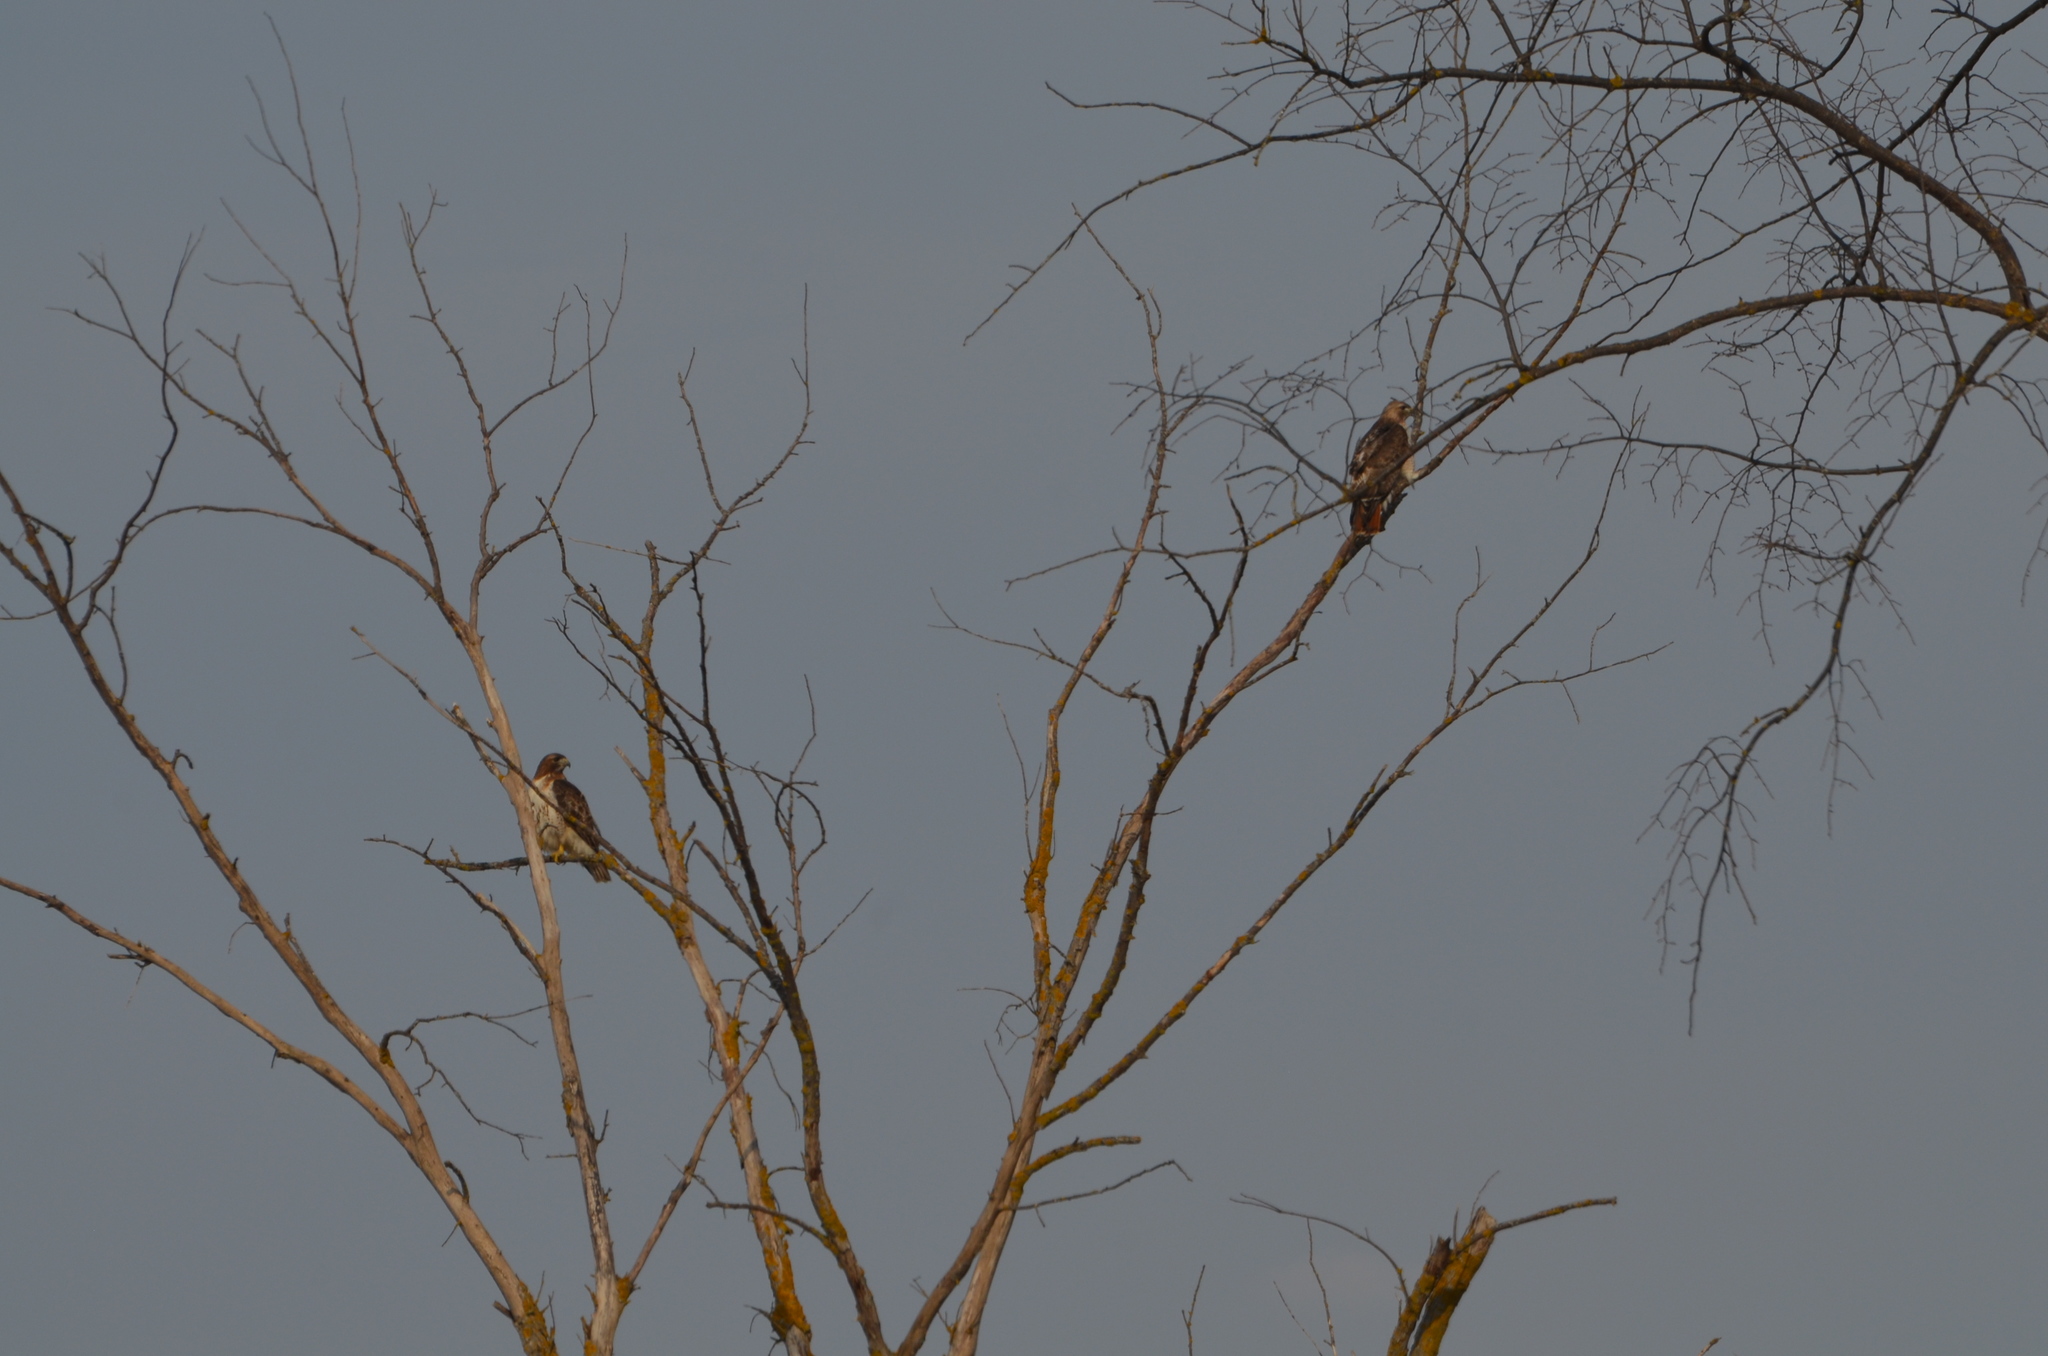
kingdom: Animalia
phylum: Chordata
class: Aves
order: Accipitriformes
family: Accipitridae
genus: Buteo
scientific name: Buteo jamaicensis
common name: Red-tailed hawk
